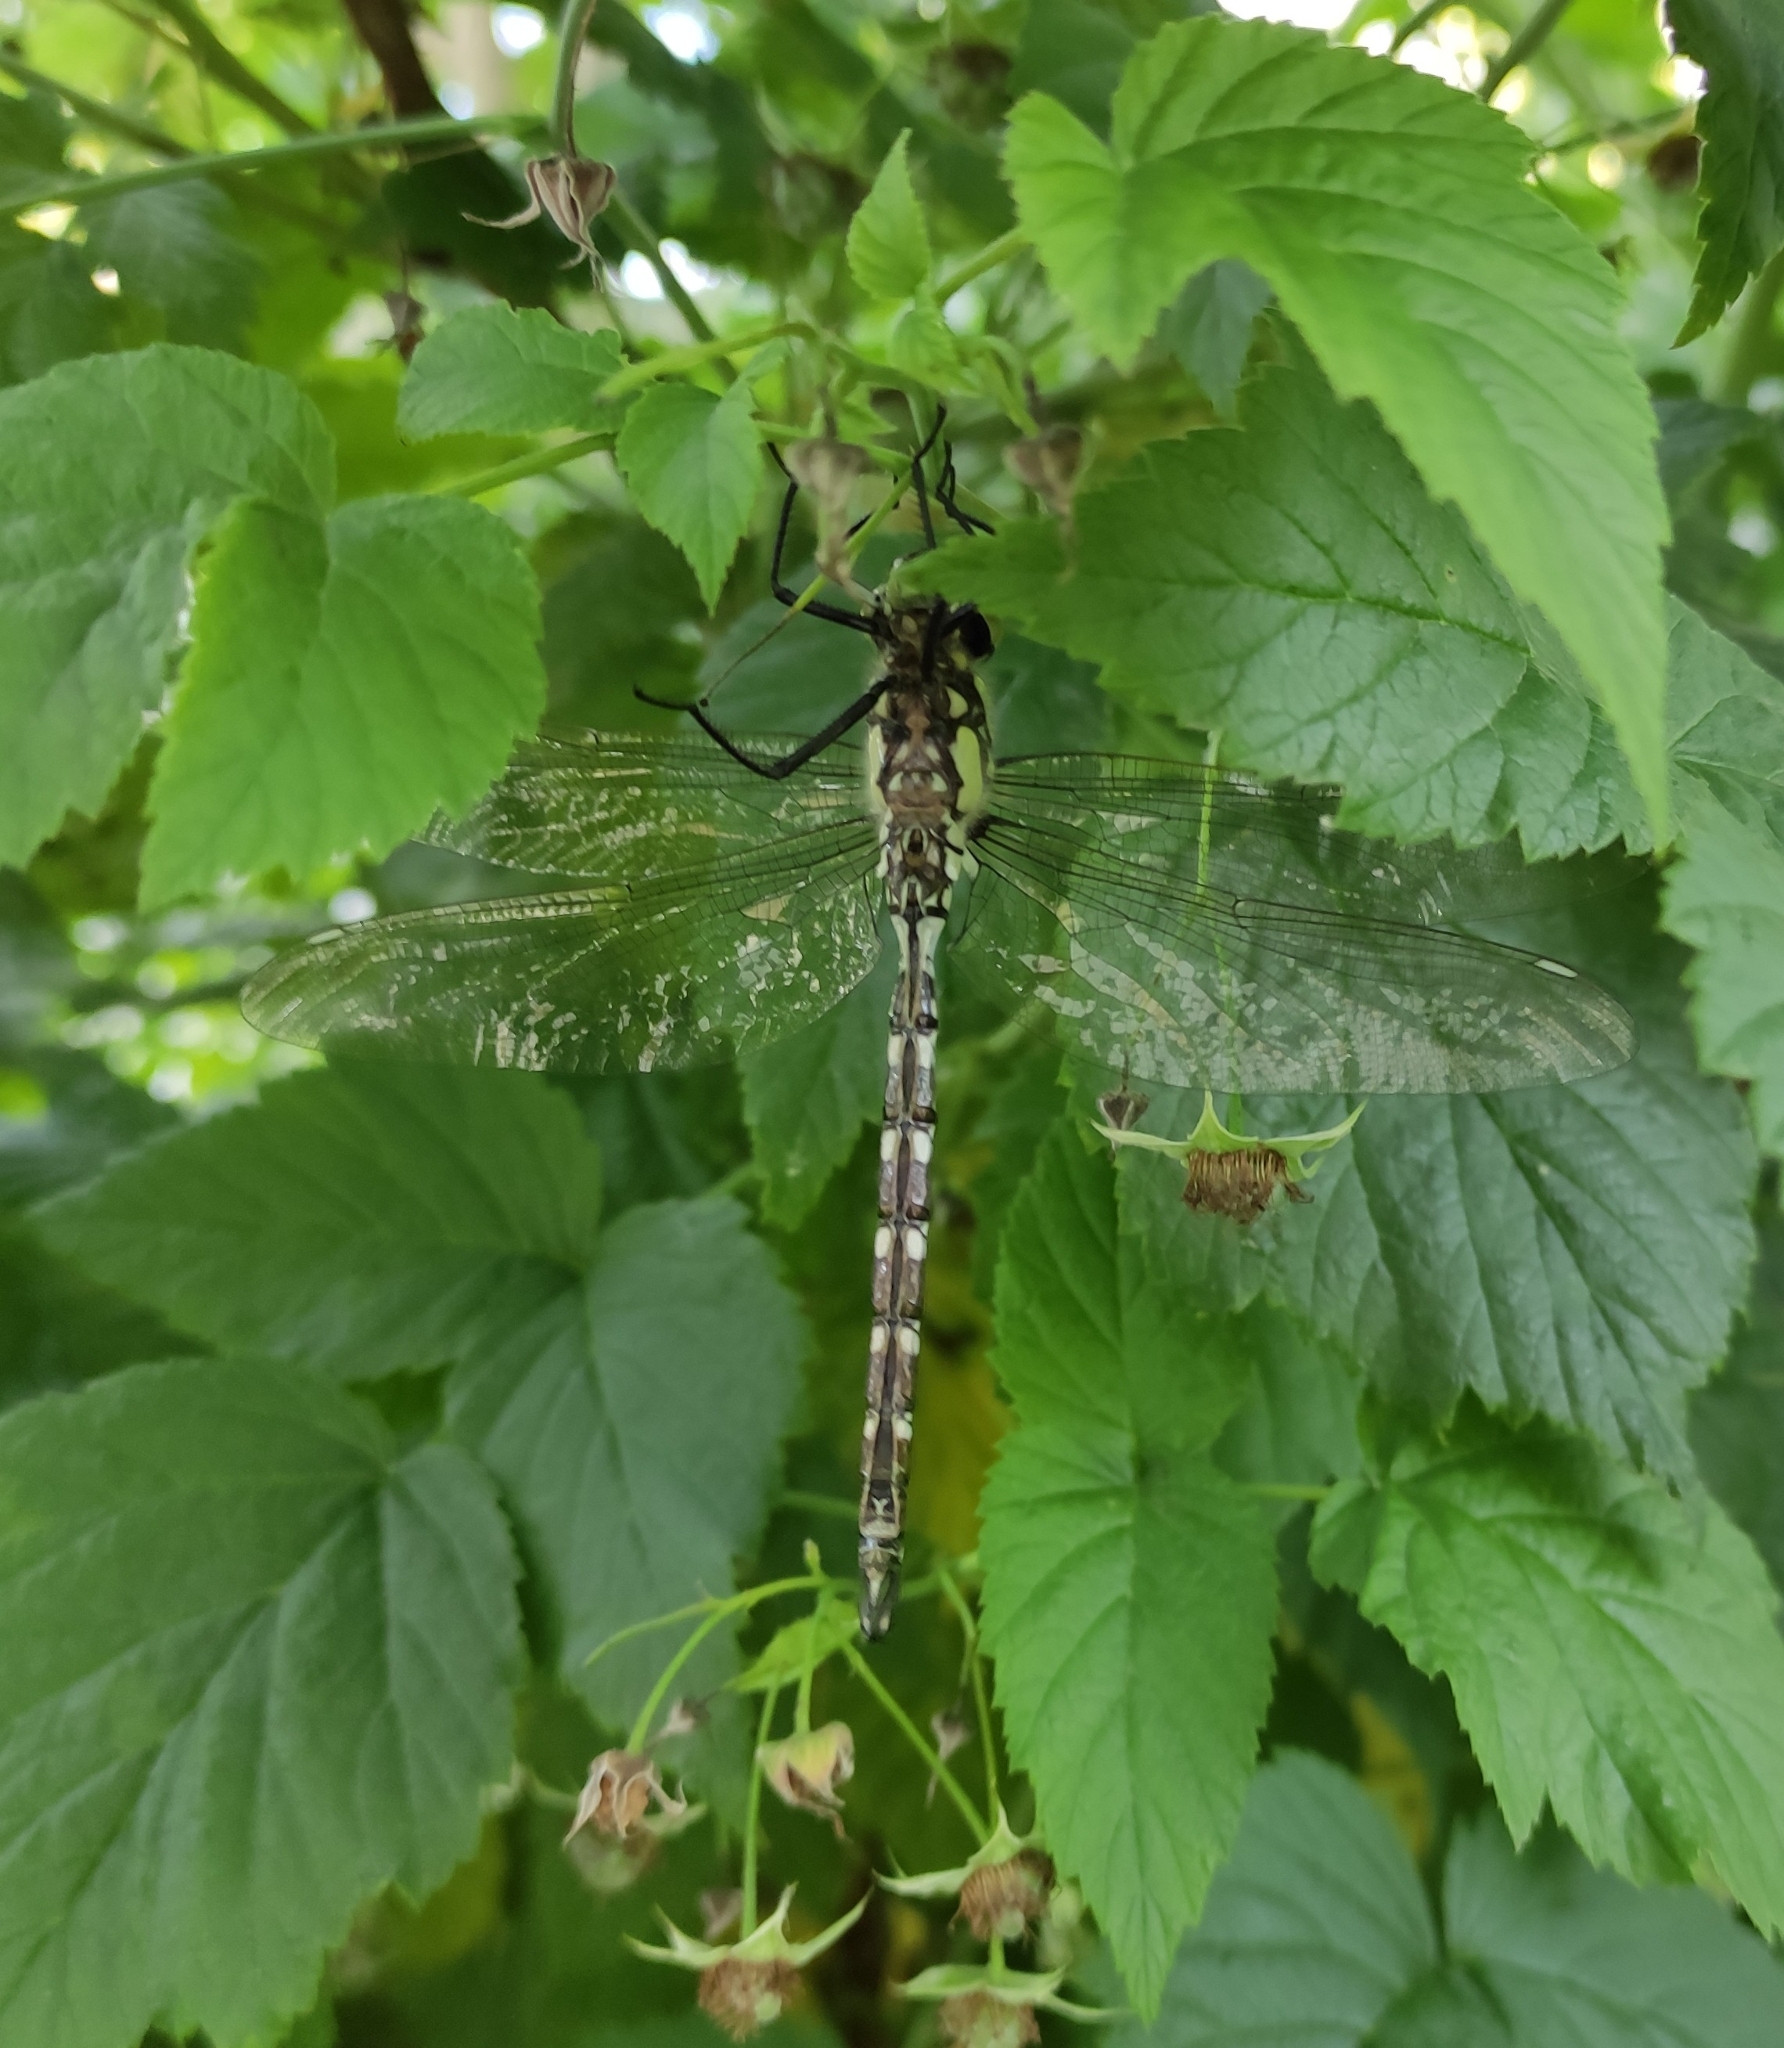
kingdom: Animalia
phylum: Arthropoda
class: Insecta
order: Odonata
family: Aeshnidae
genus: Aeshna
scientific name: Aeshna cyanea
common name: Southern hawker
